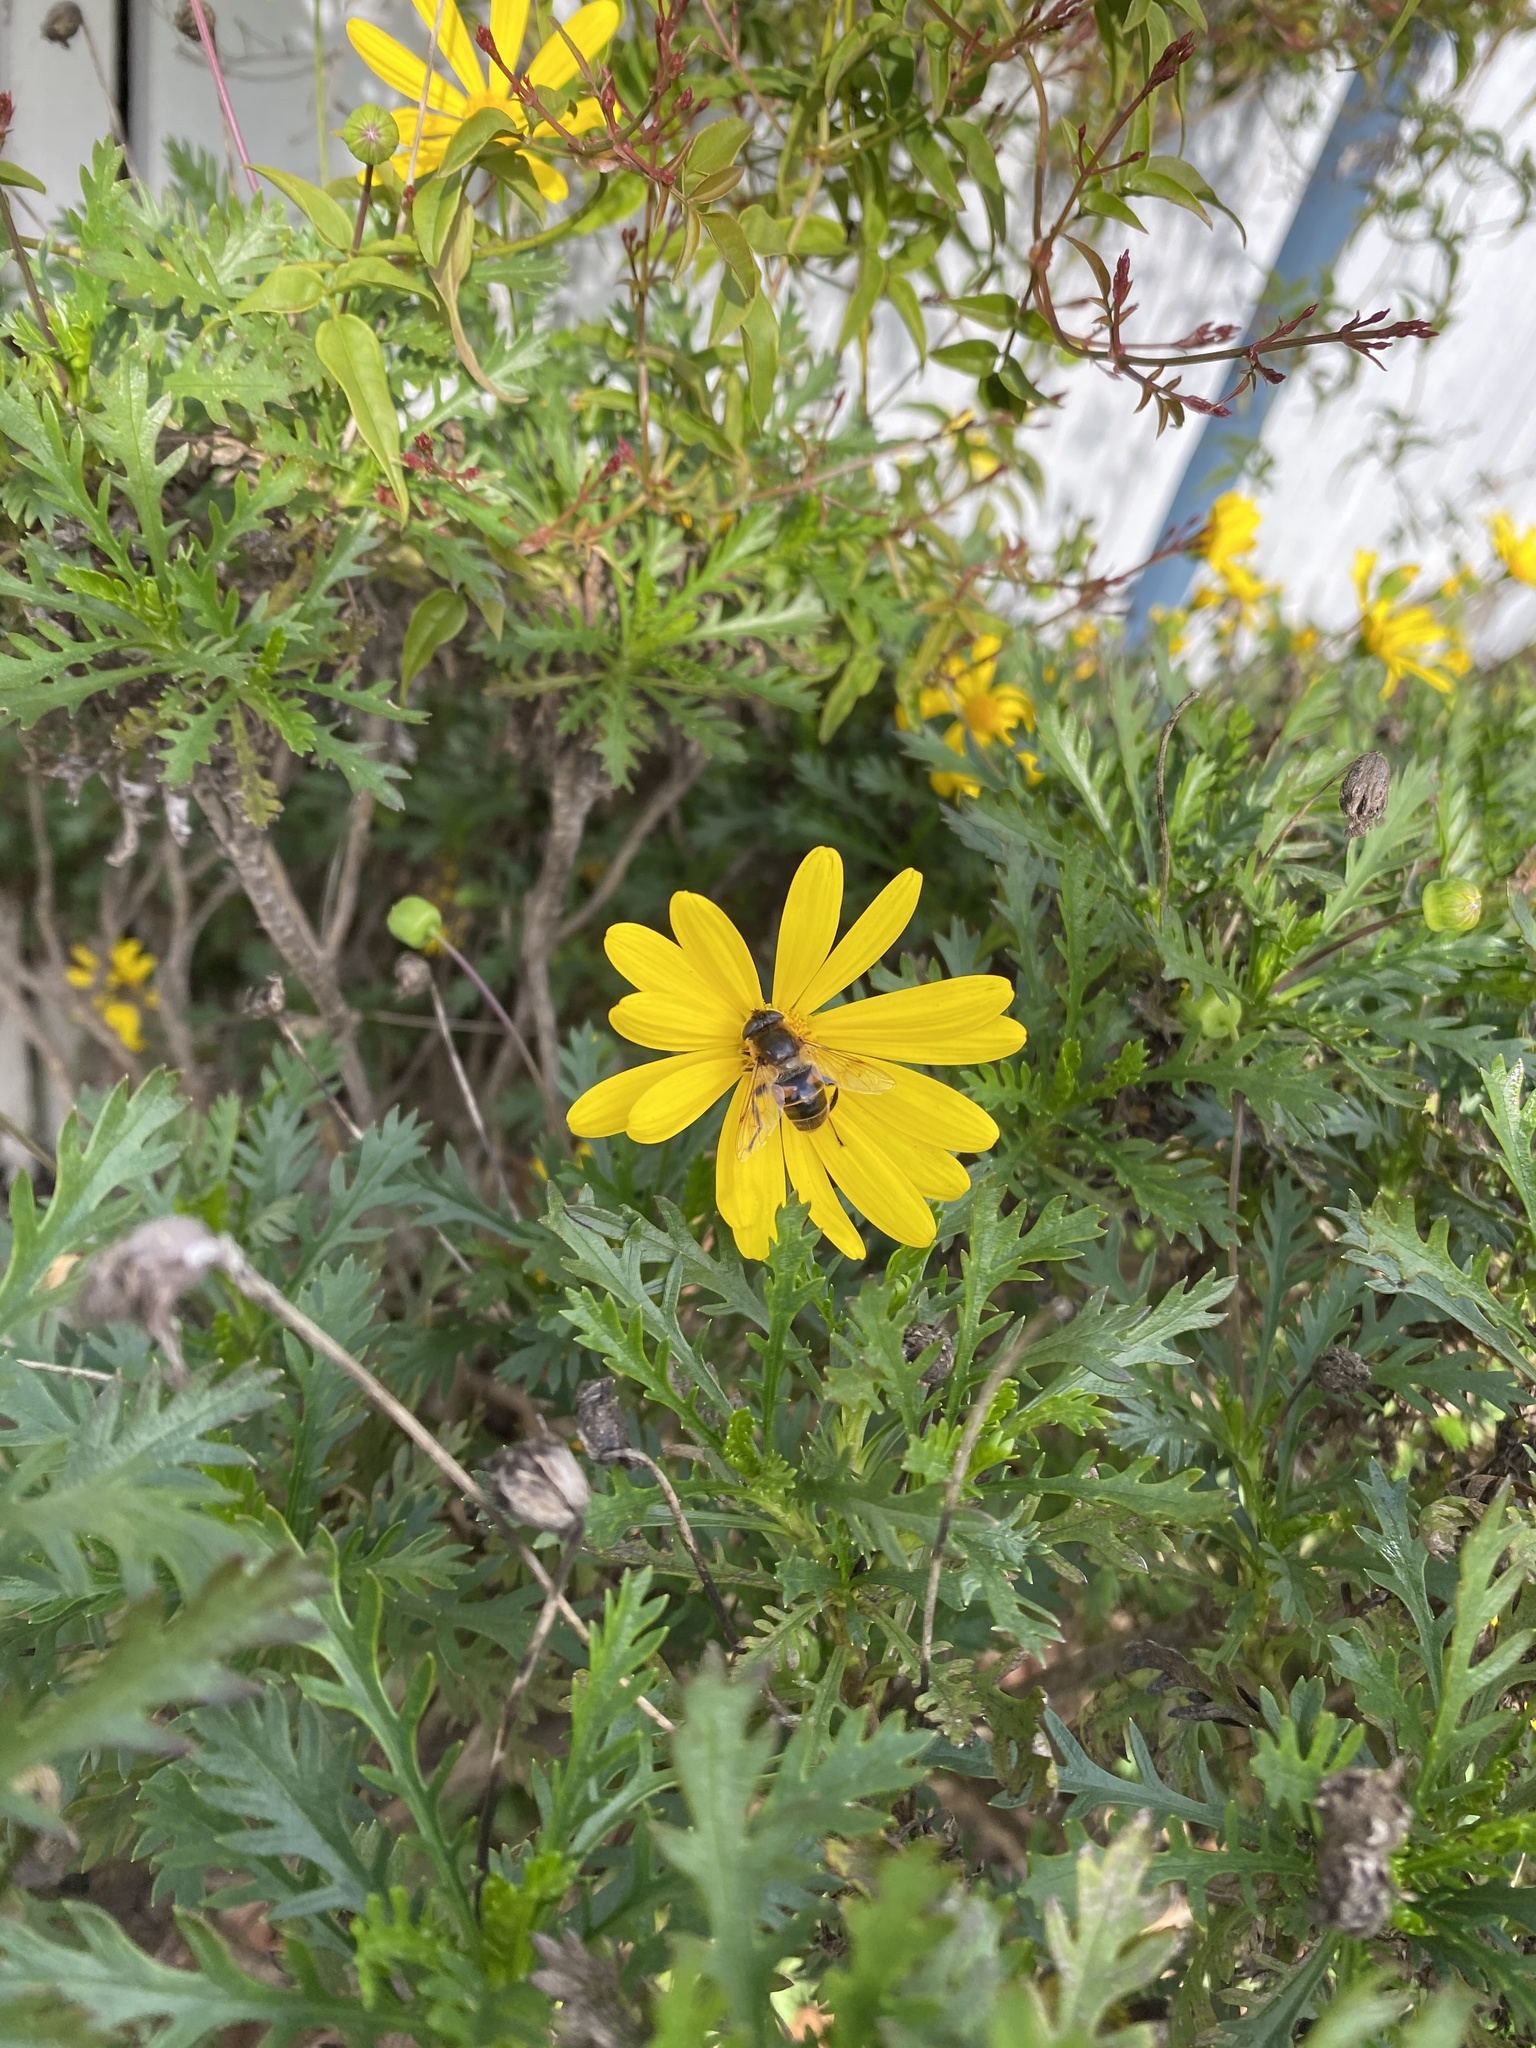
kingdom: Animalia
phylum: Arthropoda
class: Insecta
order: Diptera
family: Syrphidae
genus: Eristalis
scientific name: Eristalis tenax
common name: Drone fly
